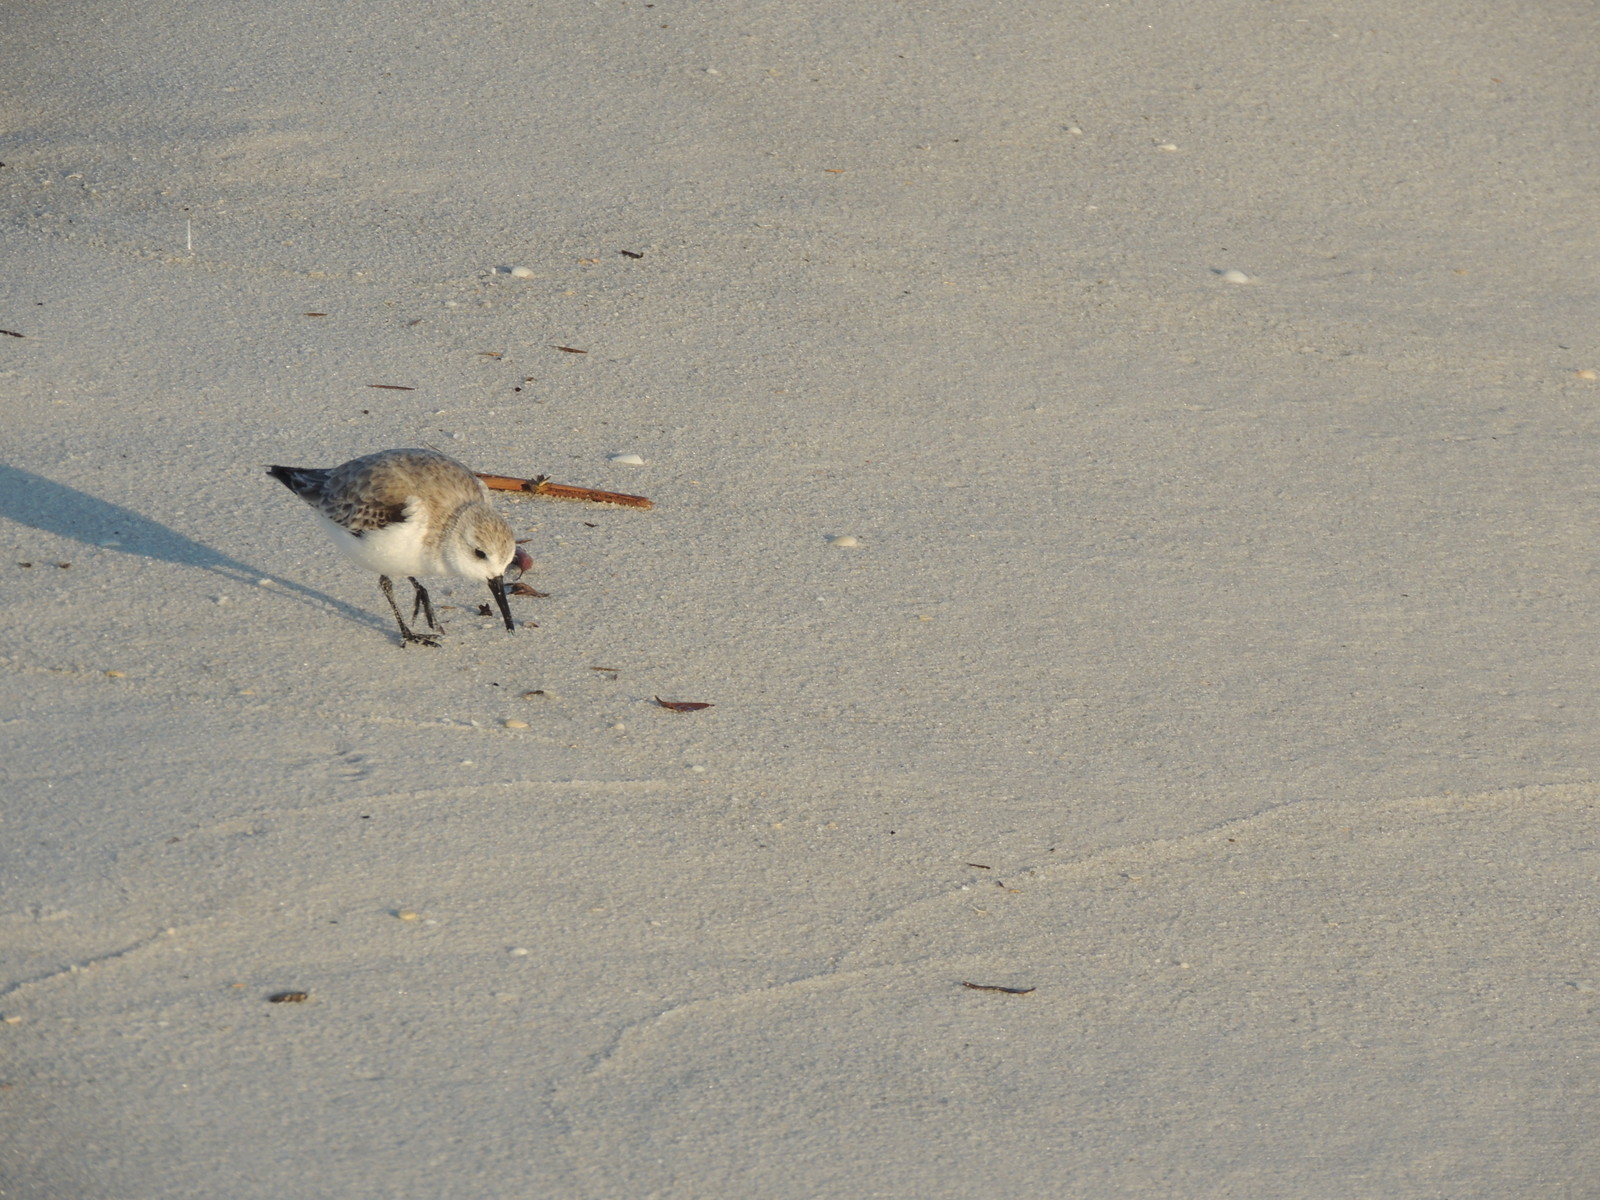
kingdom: Animalia
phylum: Chordata
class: Aves
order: Charadriiformes
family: Scolopacidae
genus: Calidris
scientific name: Calidris alba
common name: Sanderling
